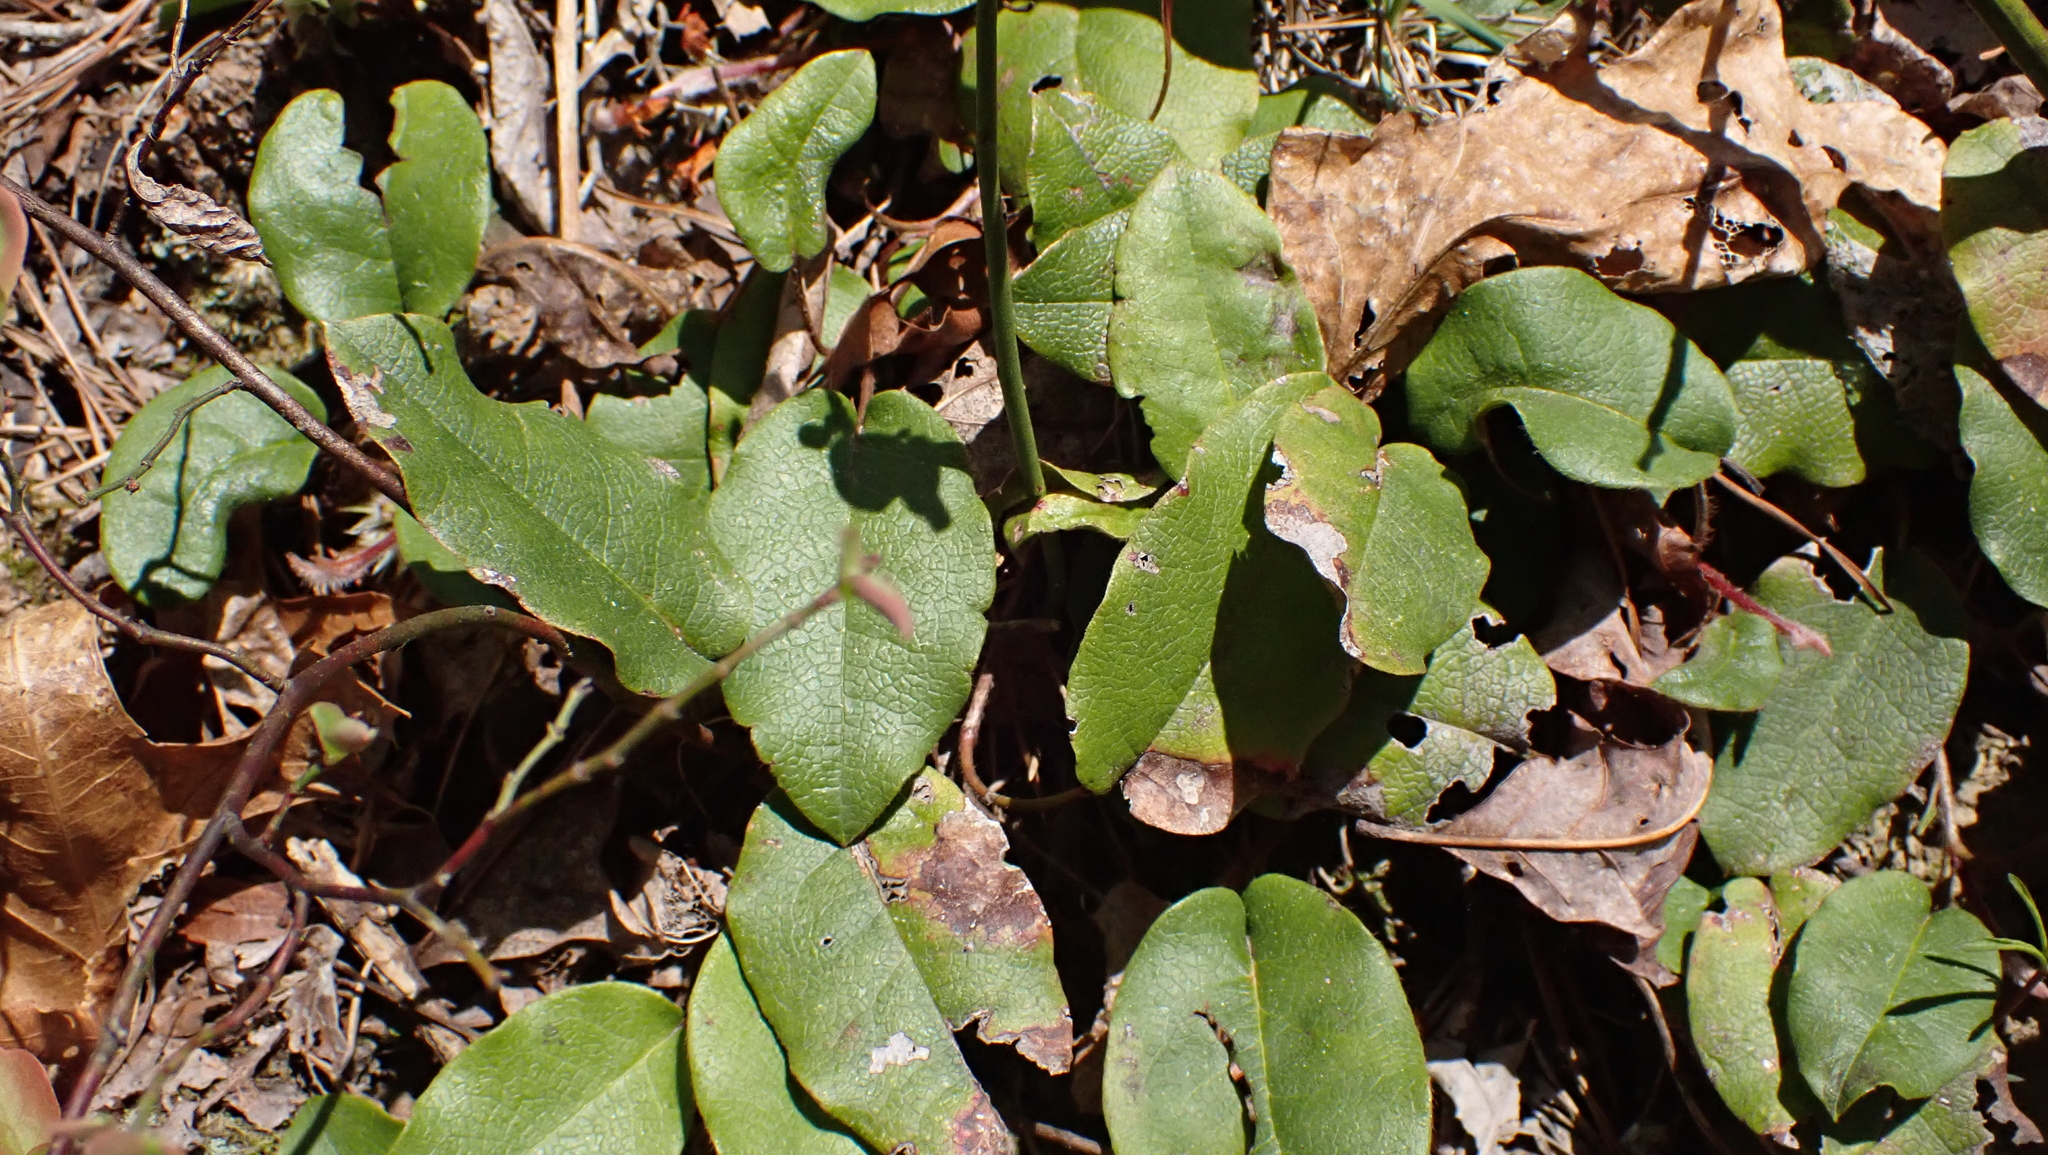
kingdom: Plantae
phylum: Tracheophyta
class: Magnoliopsida
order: Ericales
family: Ericaceae
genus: Epigaea
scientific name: Epigaea repens
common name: Gravelroot
